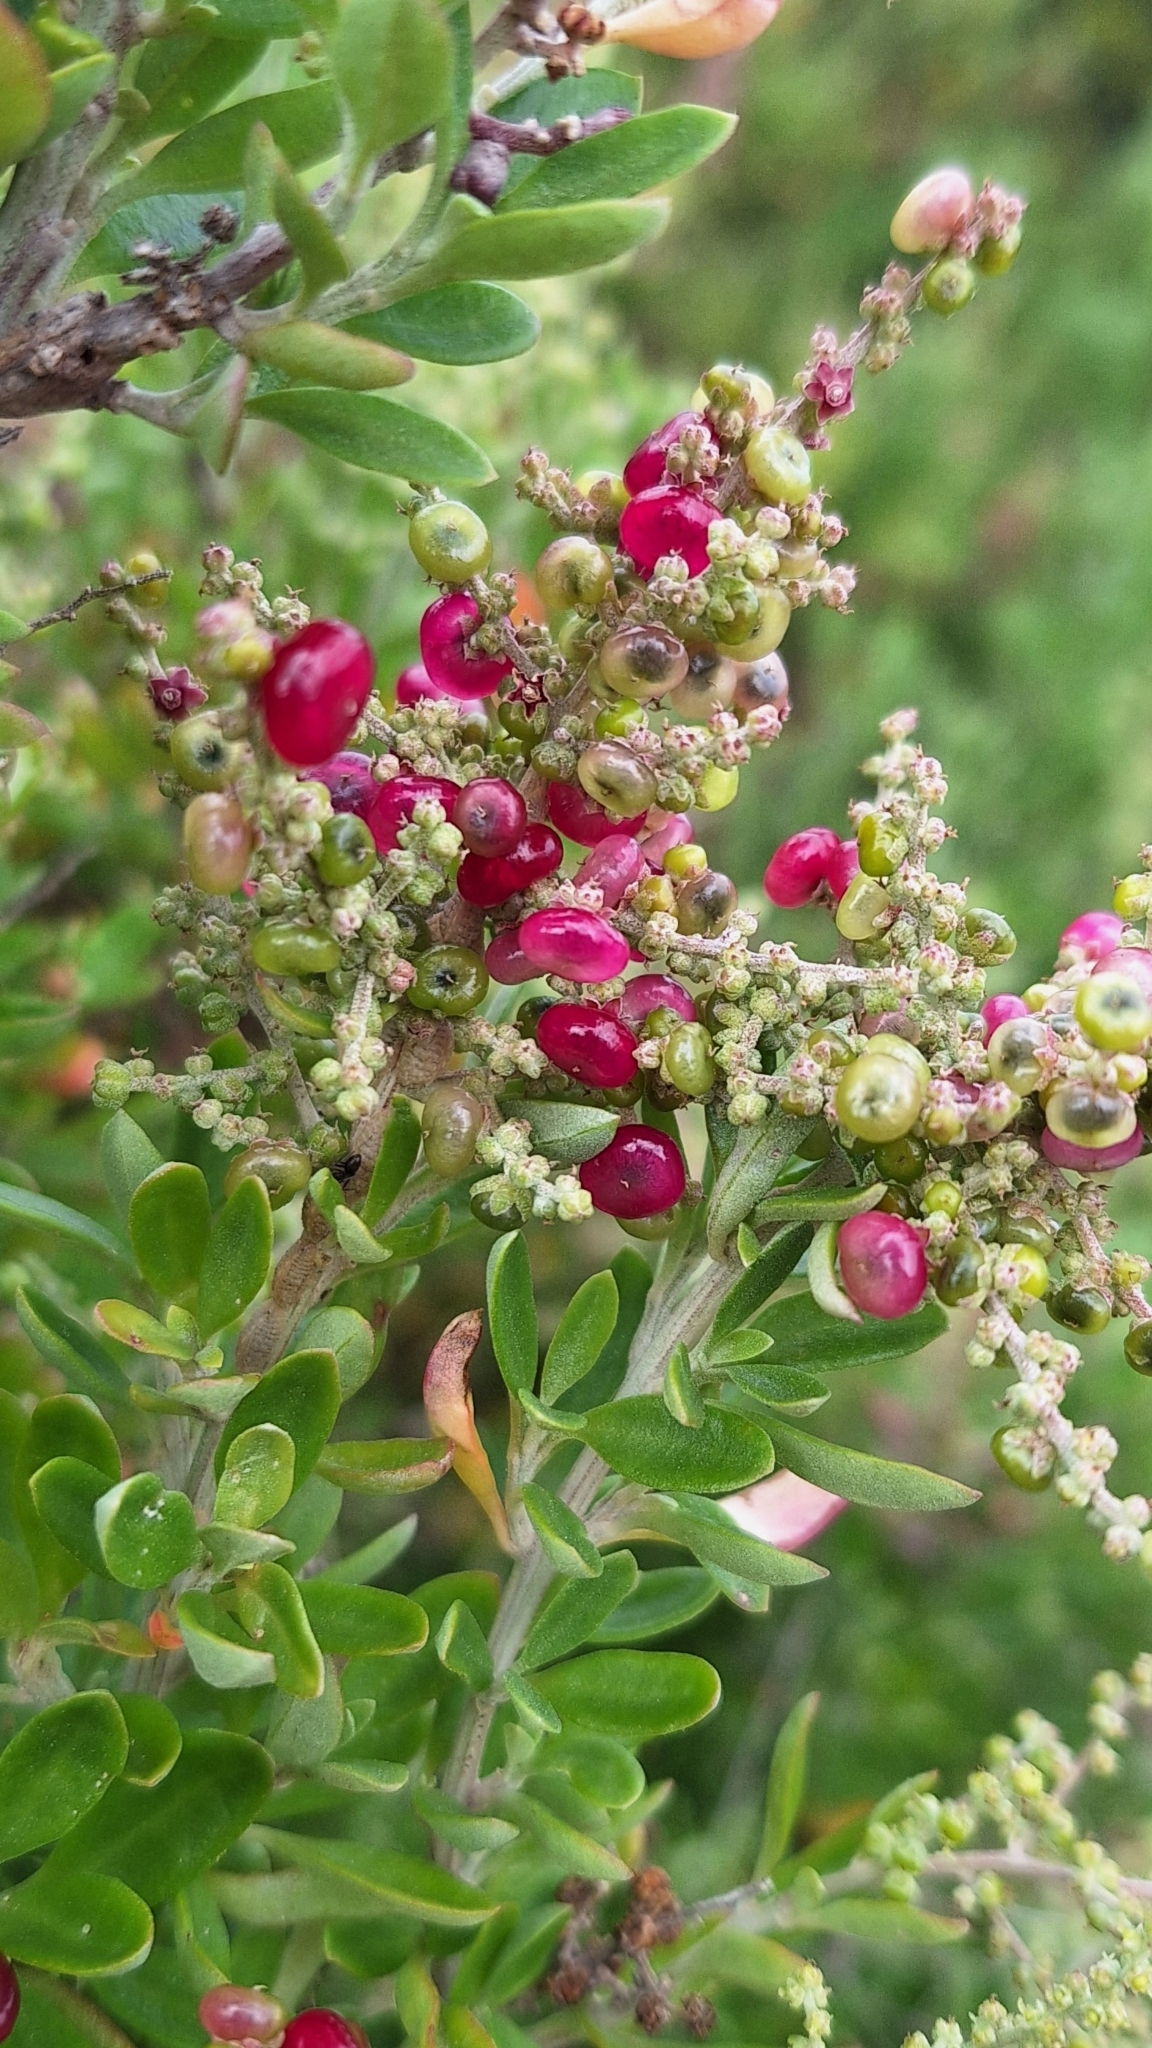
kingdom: Plantae
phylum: Tracheophyta
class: Magnoliopsida
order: Caryophyllales
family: Amaranthaceae
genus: Chenopodium
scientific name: Chenopodium candolleanum
